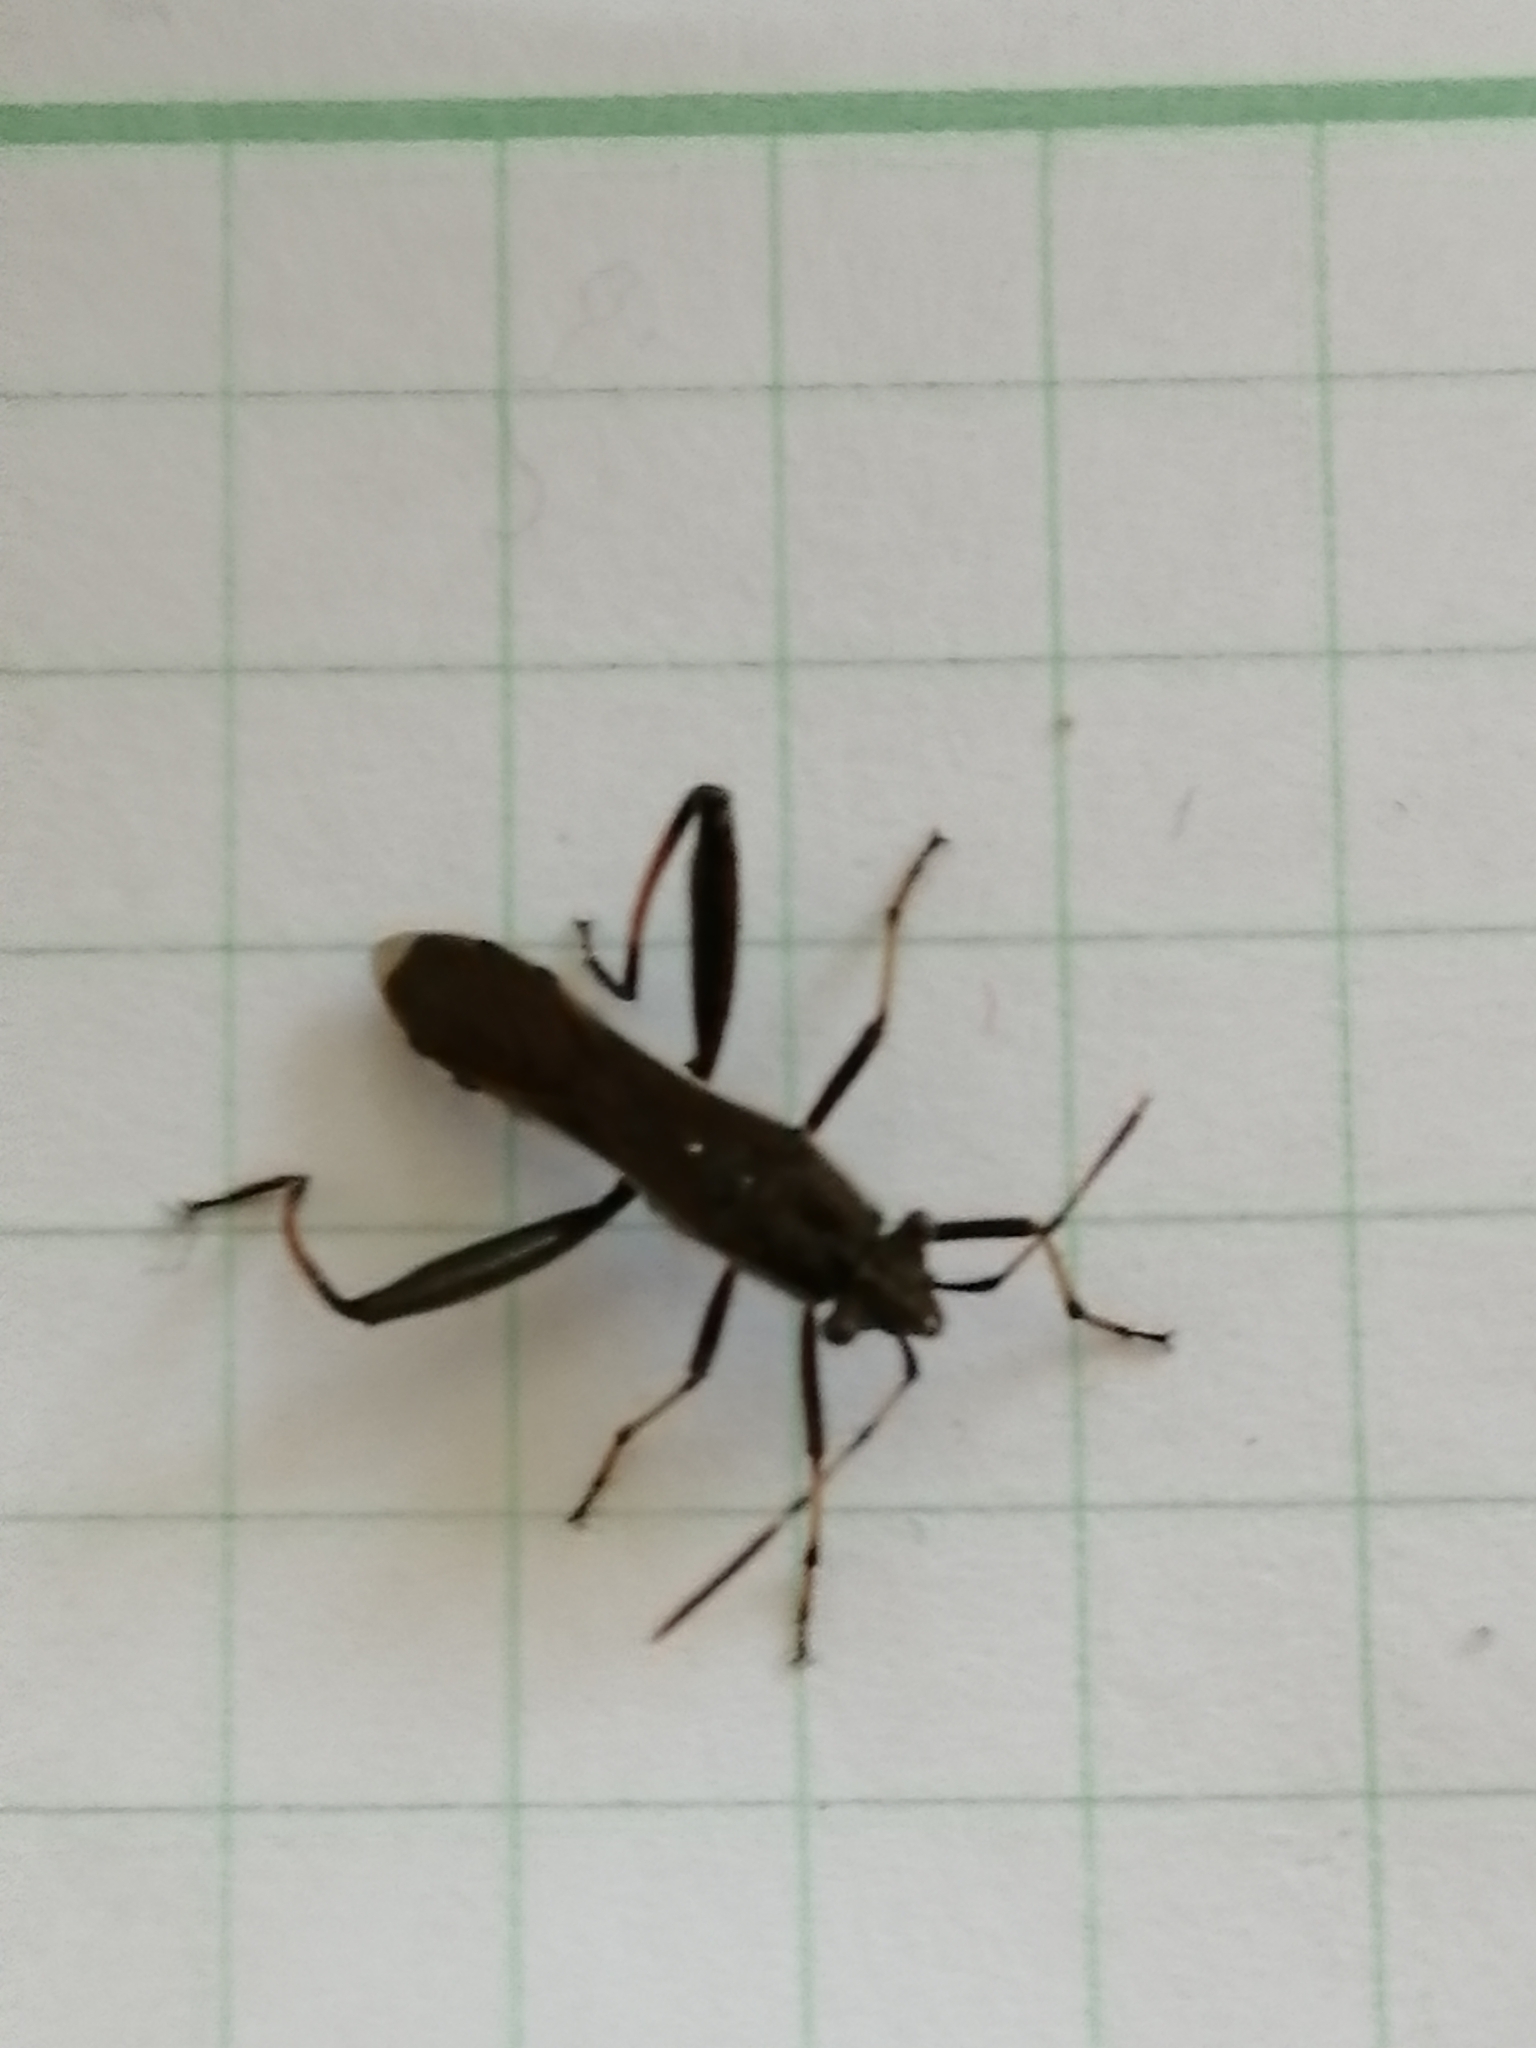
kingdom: Animalia
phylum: Arthropoda
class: Insecta
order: Hemiptera
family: Alydidae
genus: Camptopus
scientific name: Camptopus lateralis
